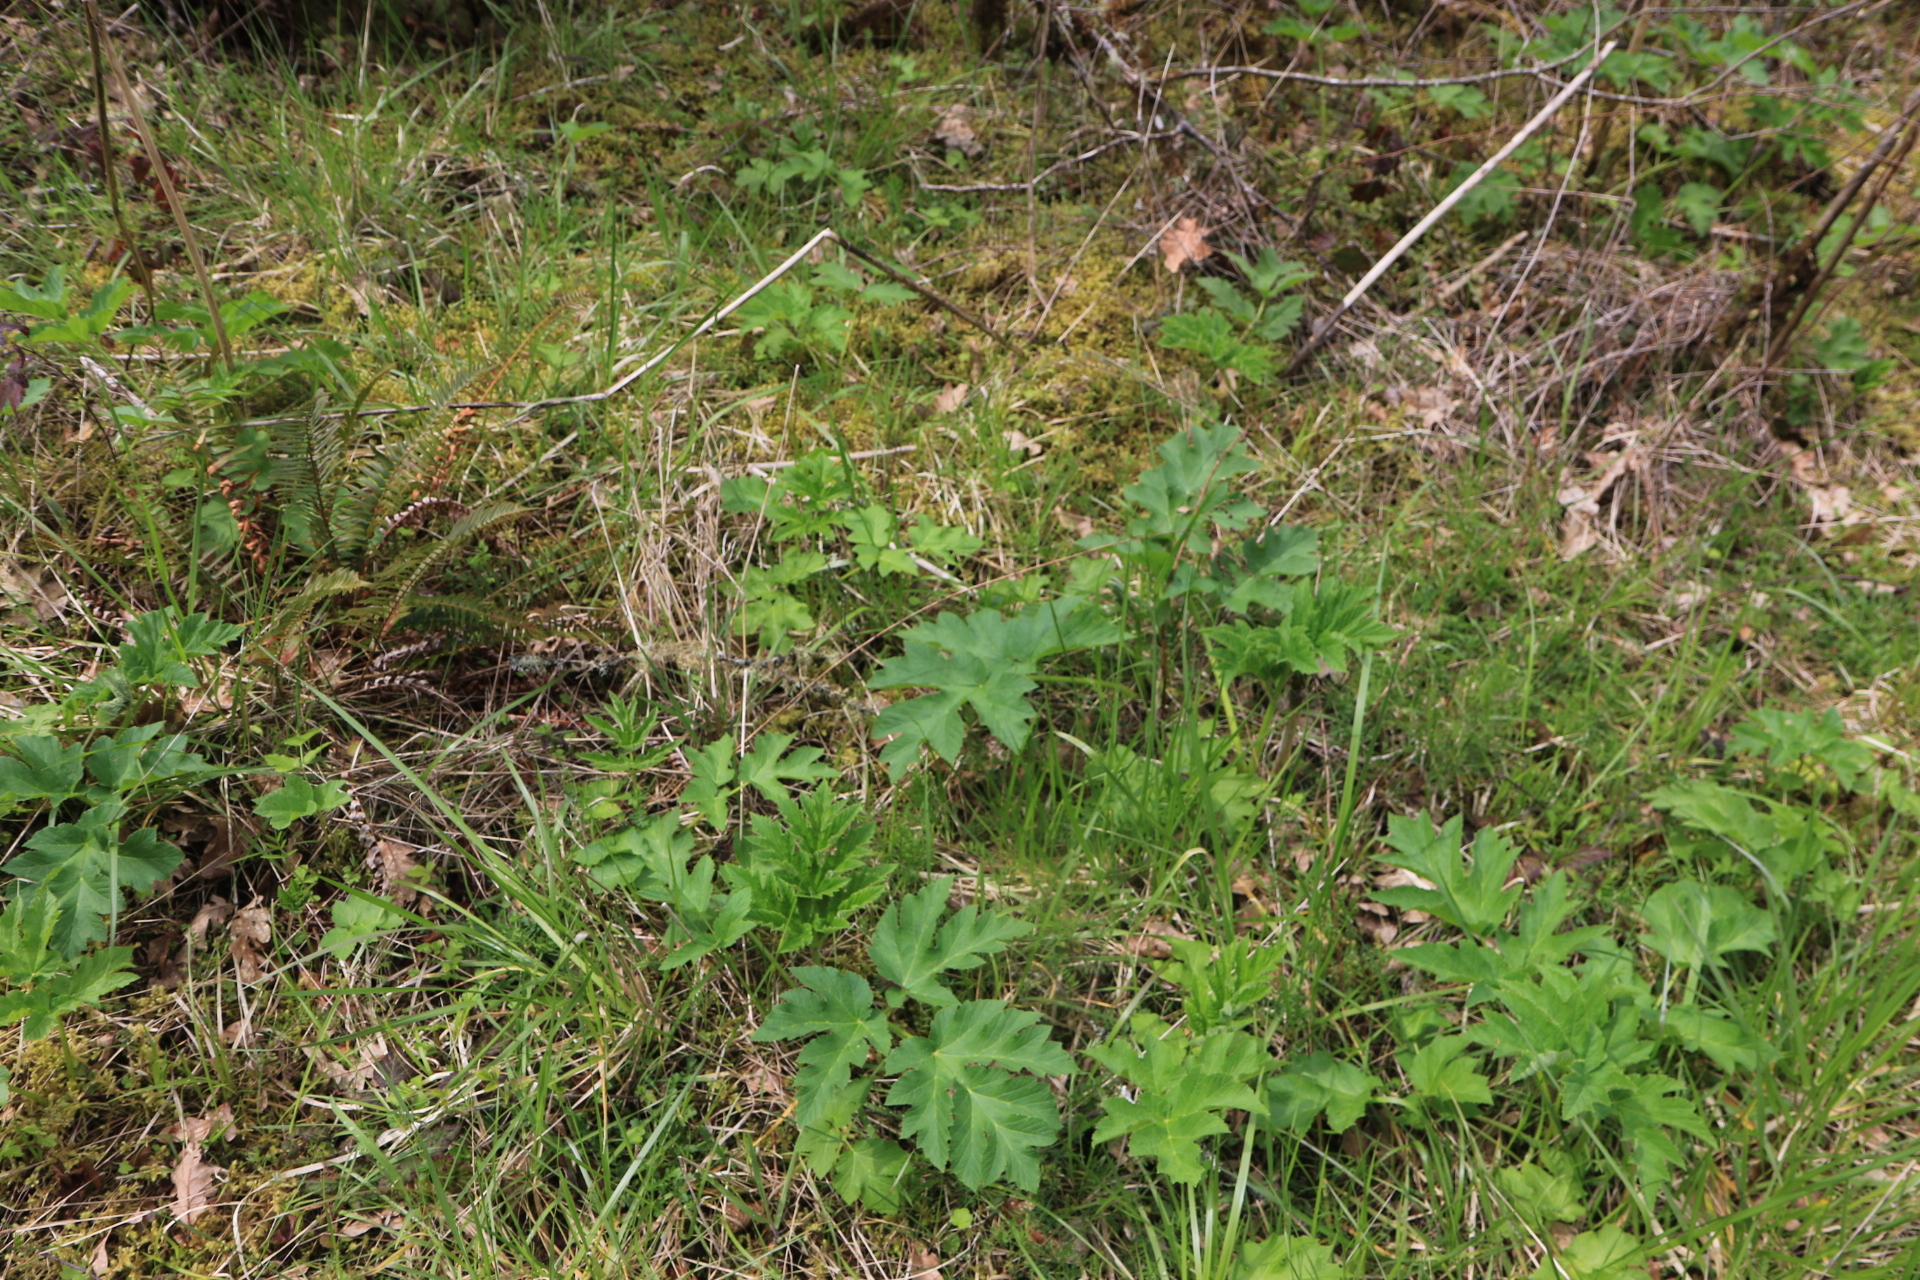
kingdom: Plantae
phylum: Tracheophyta
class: Magnoliopsida
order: Apiales
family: Apiaceae
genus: Heracleum
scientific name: Heracleum maximum
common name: American cow parsnip
